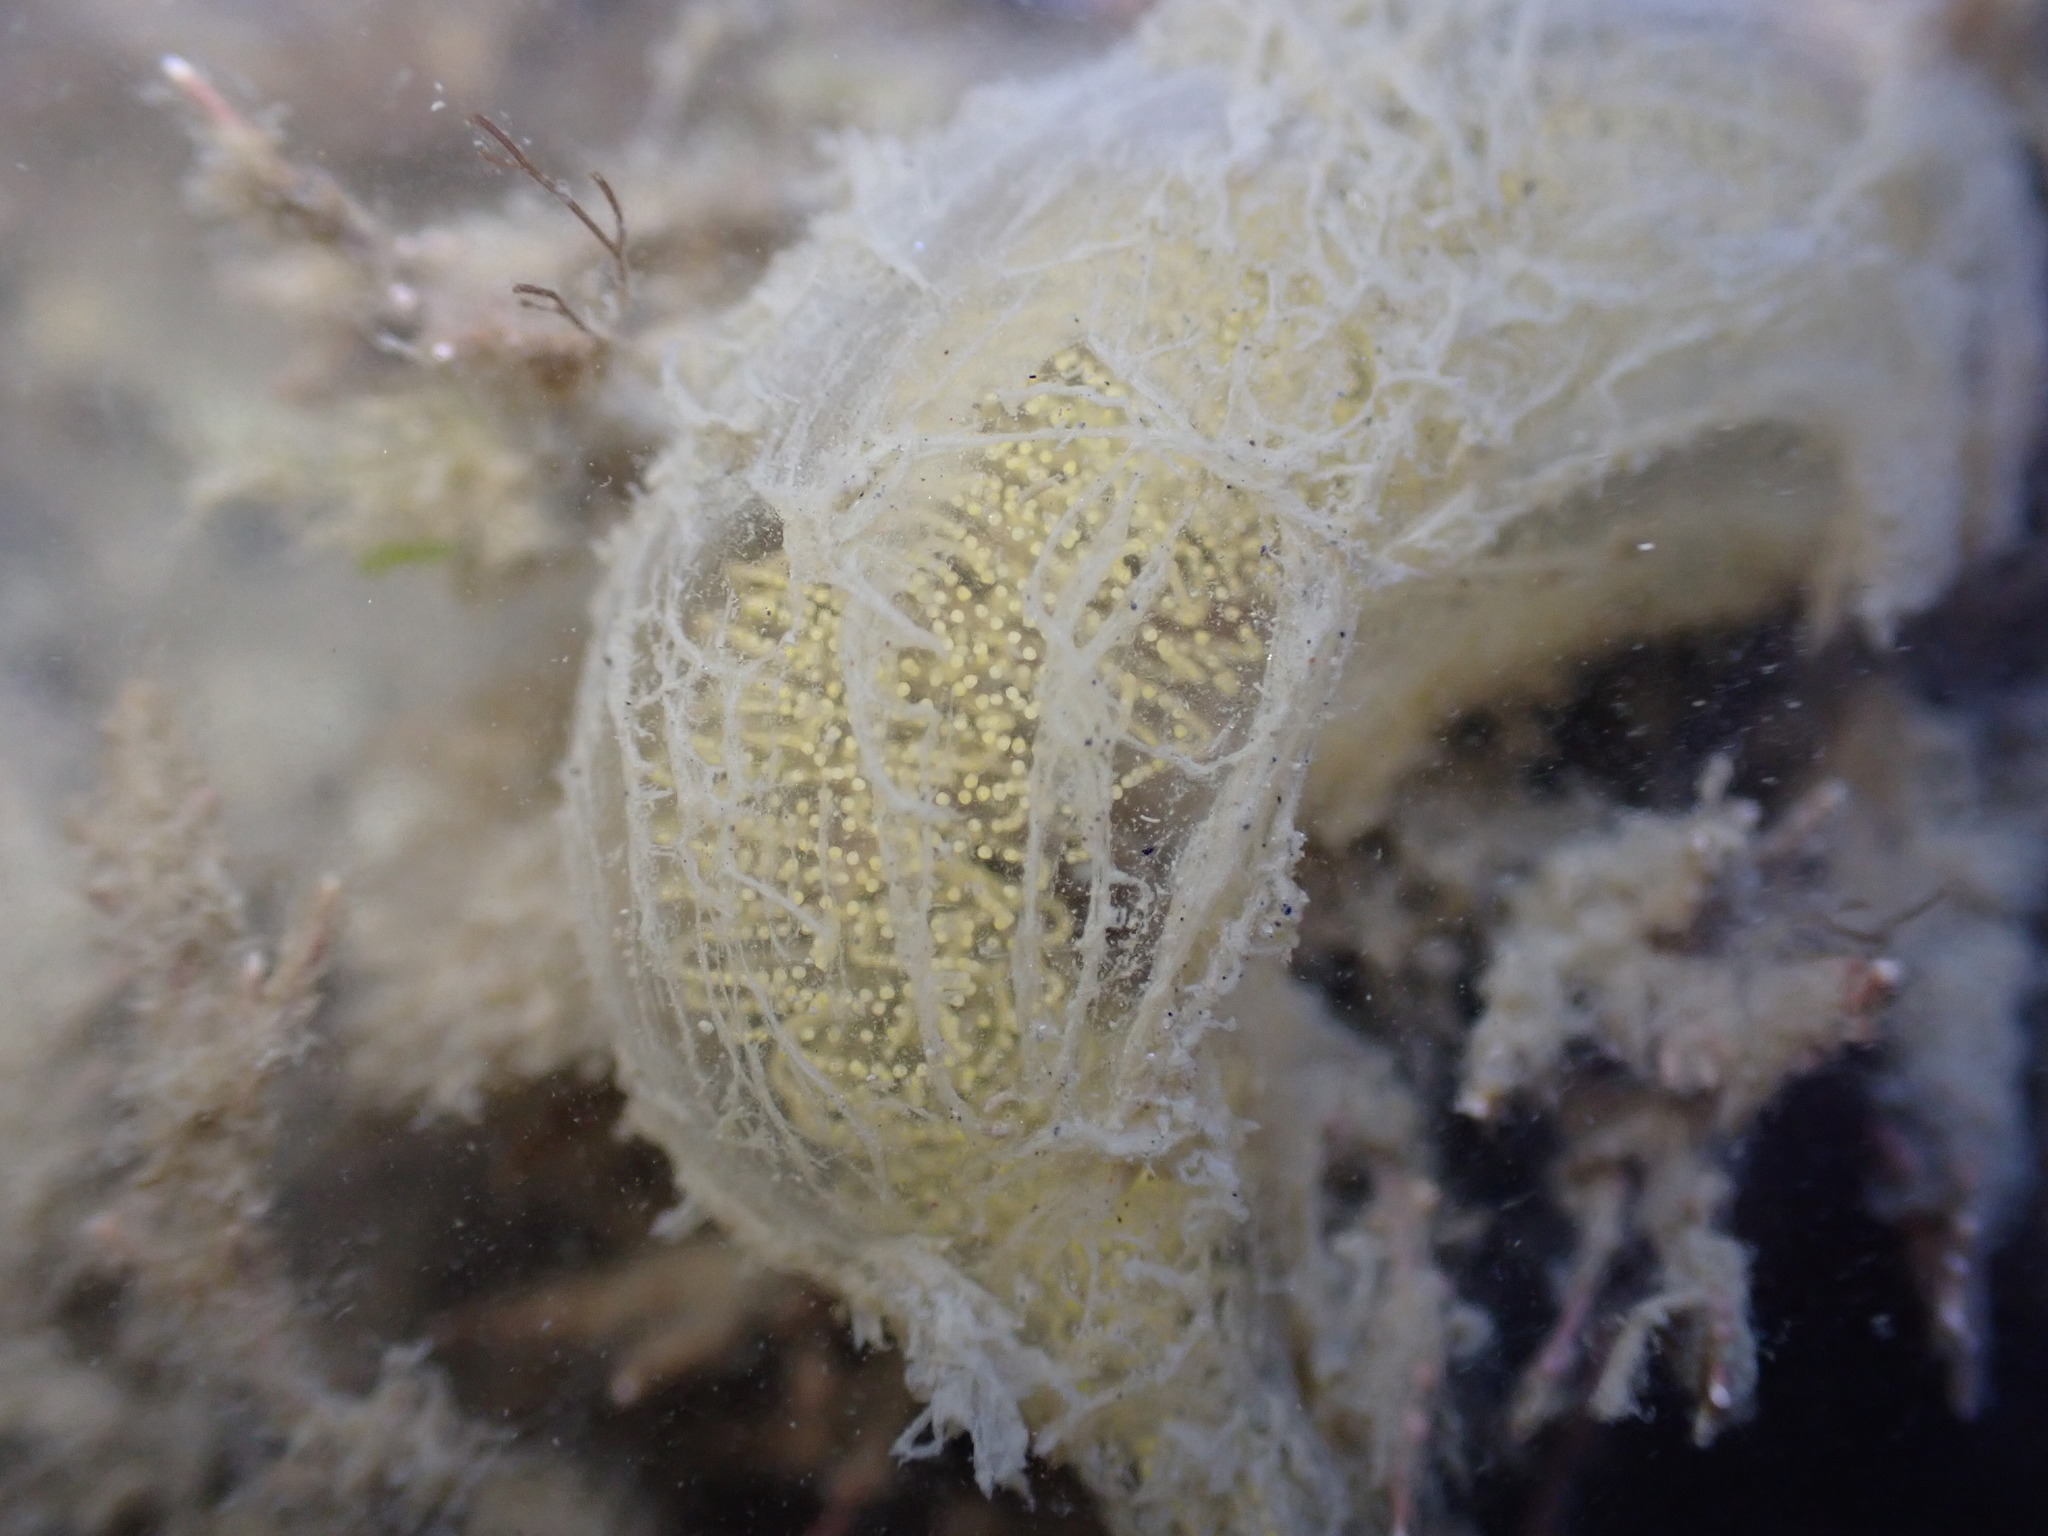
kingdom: Animalia
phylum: Mollusca
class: Gastropoda
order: Cephalaspidea
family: Haminoeidae
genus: Papawera
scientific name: Papawera zelandiae
